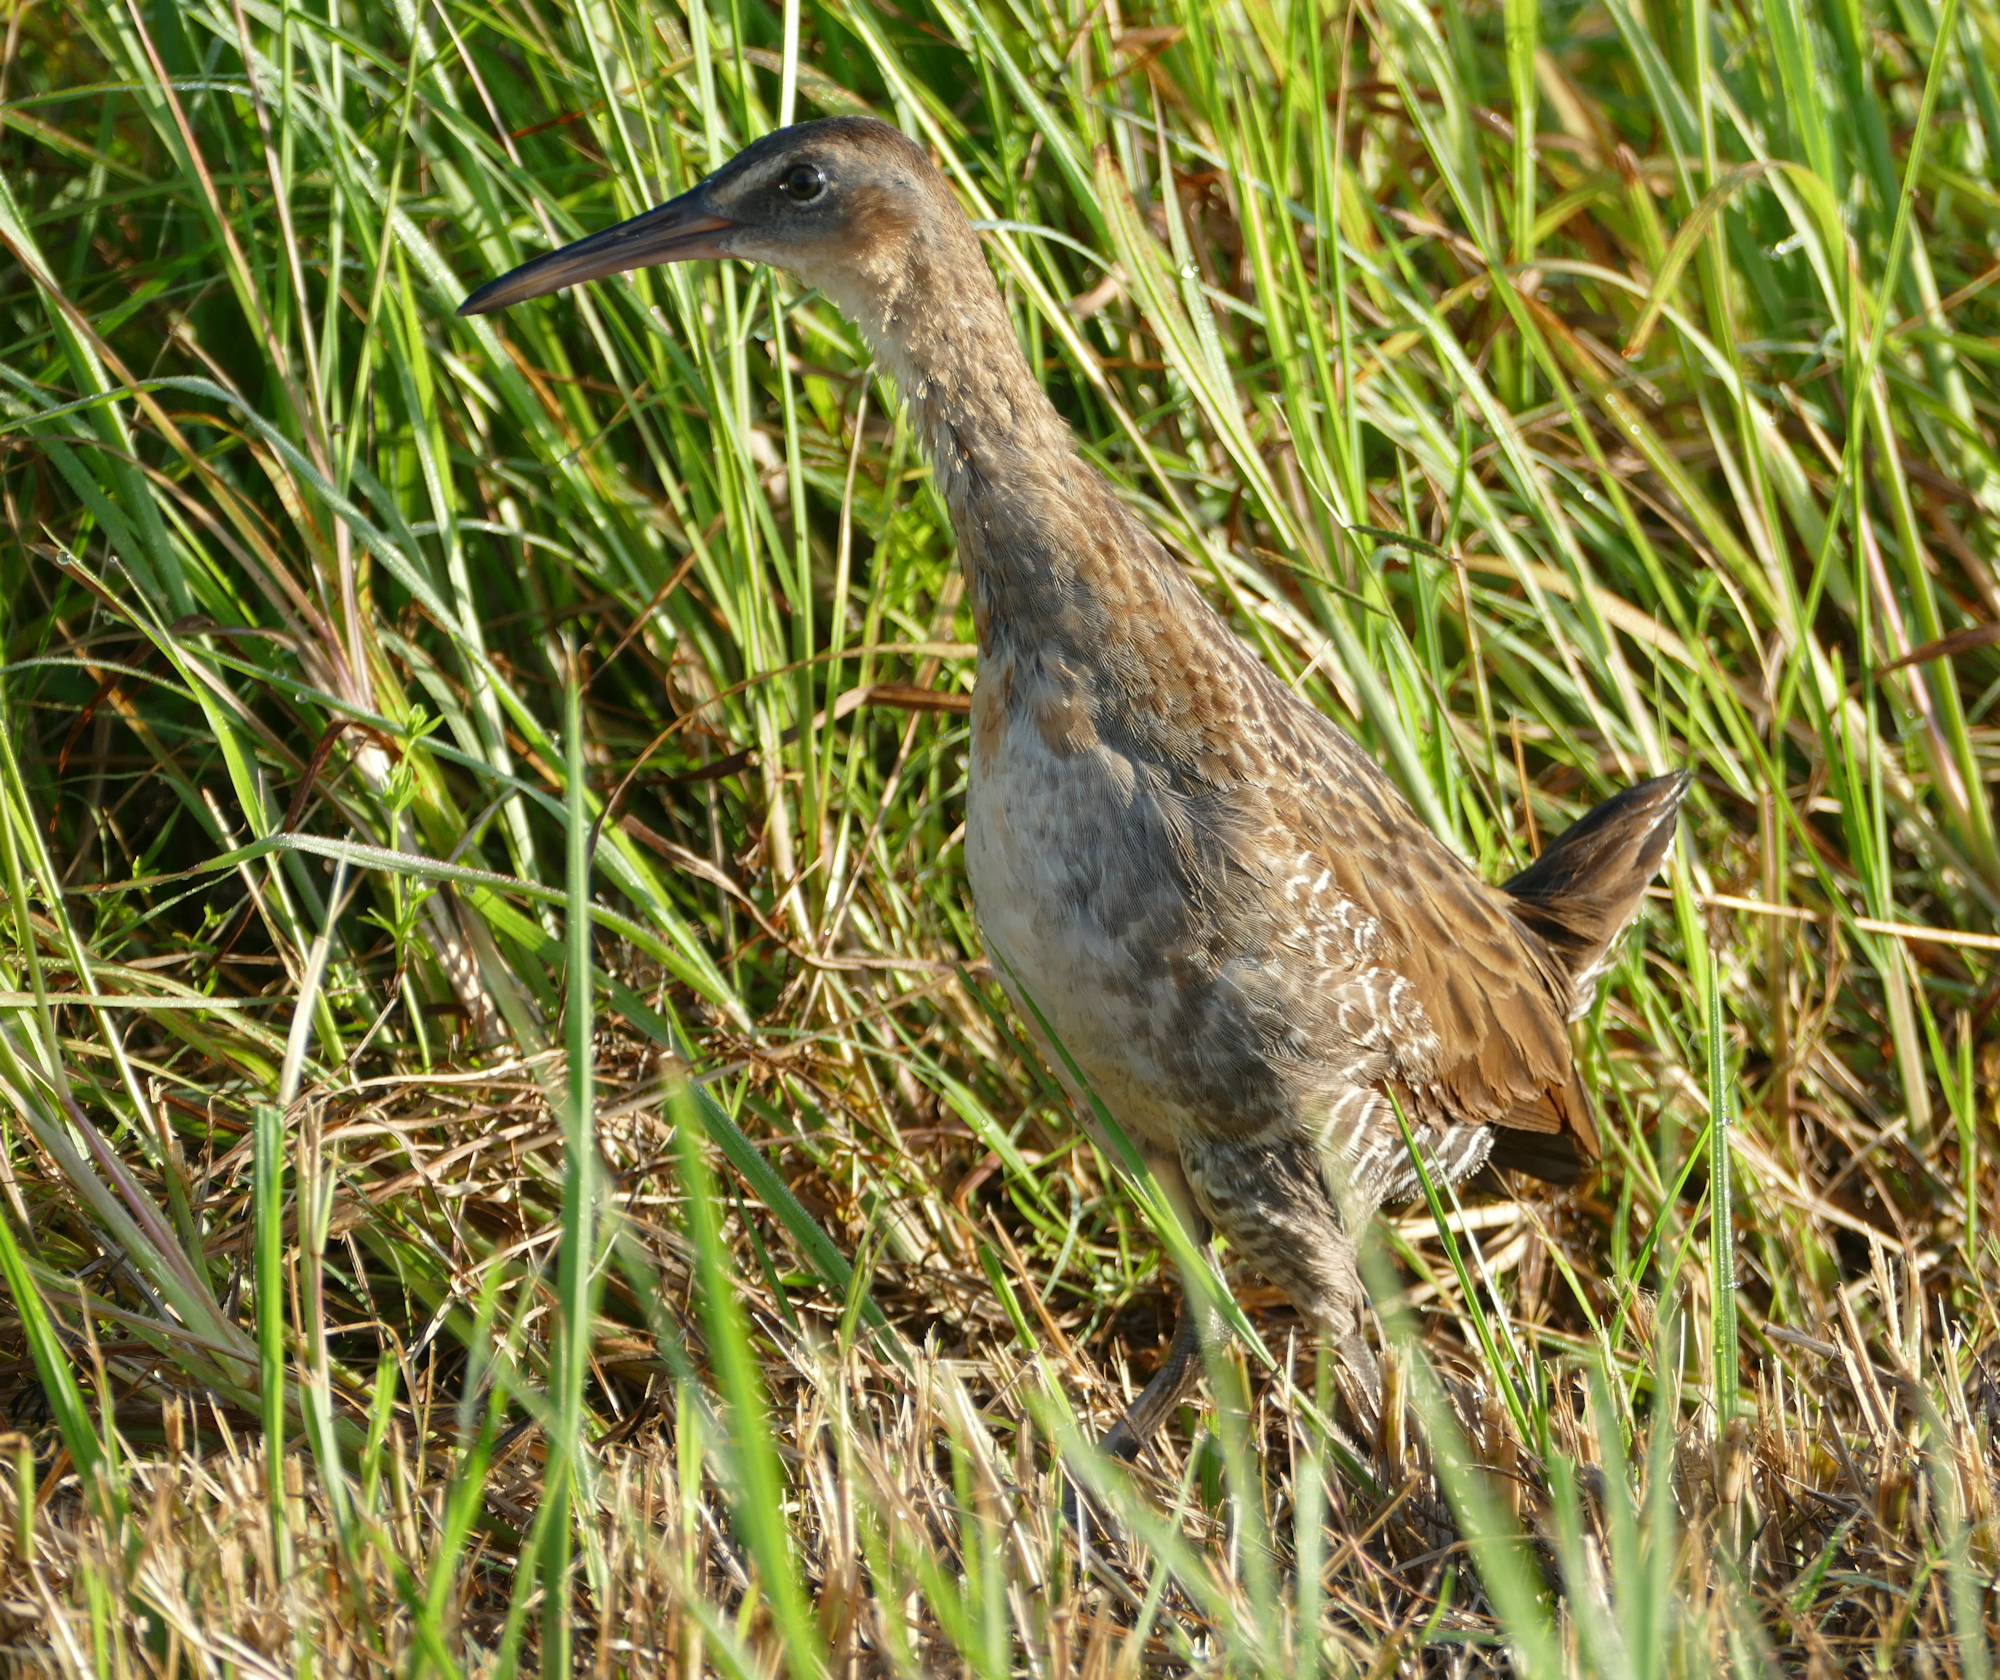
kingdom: Animalia
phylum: Chordata
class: Aves
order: Gruiformes
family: Rallidae
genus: Rallus
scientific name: Rallus
